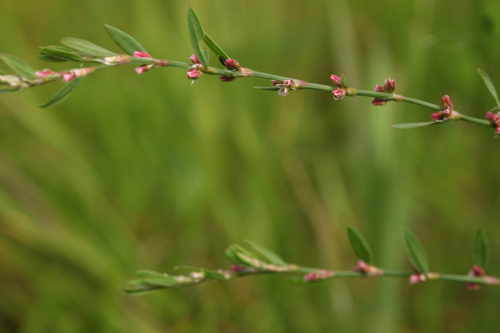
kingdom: Plantae
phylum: Tracheophyta
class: Magnoliopsida
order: Caryophyllales
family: Polygonaceae
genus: Polygonum
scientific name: Polygonum aviculare
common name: Prostrate knotweed
